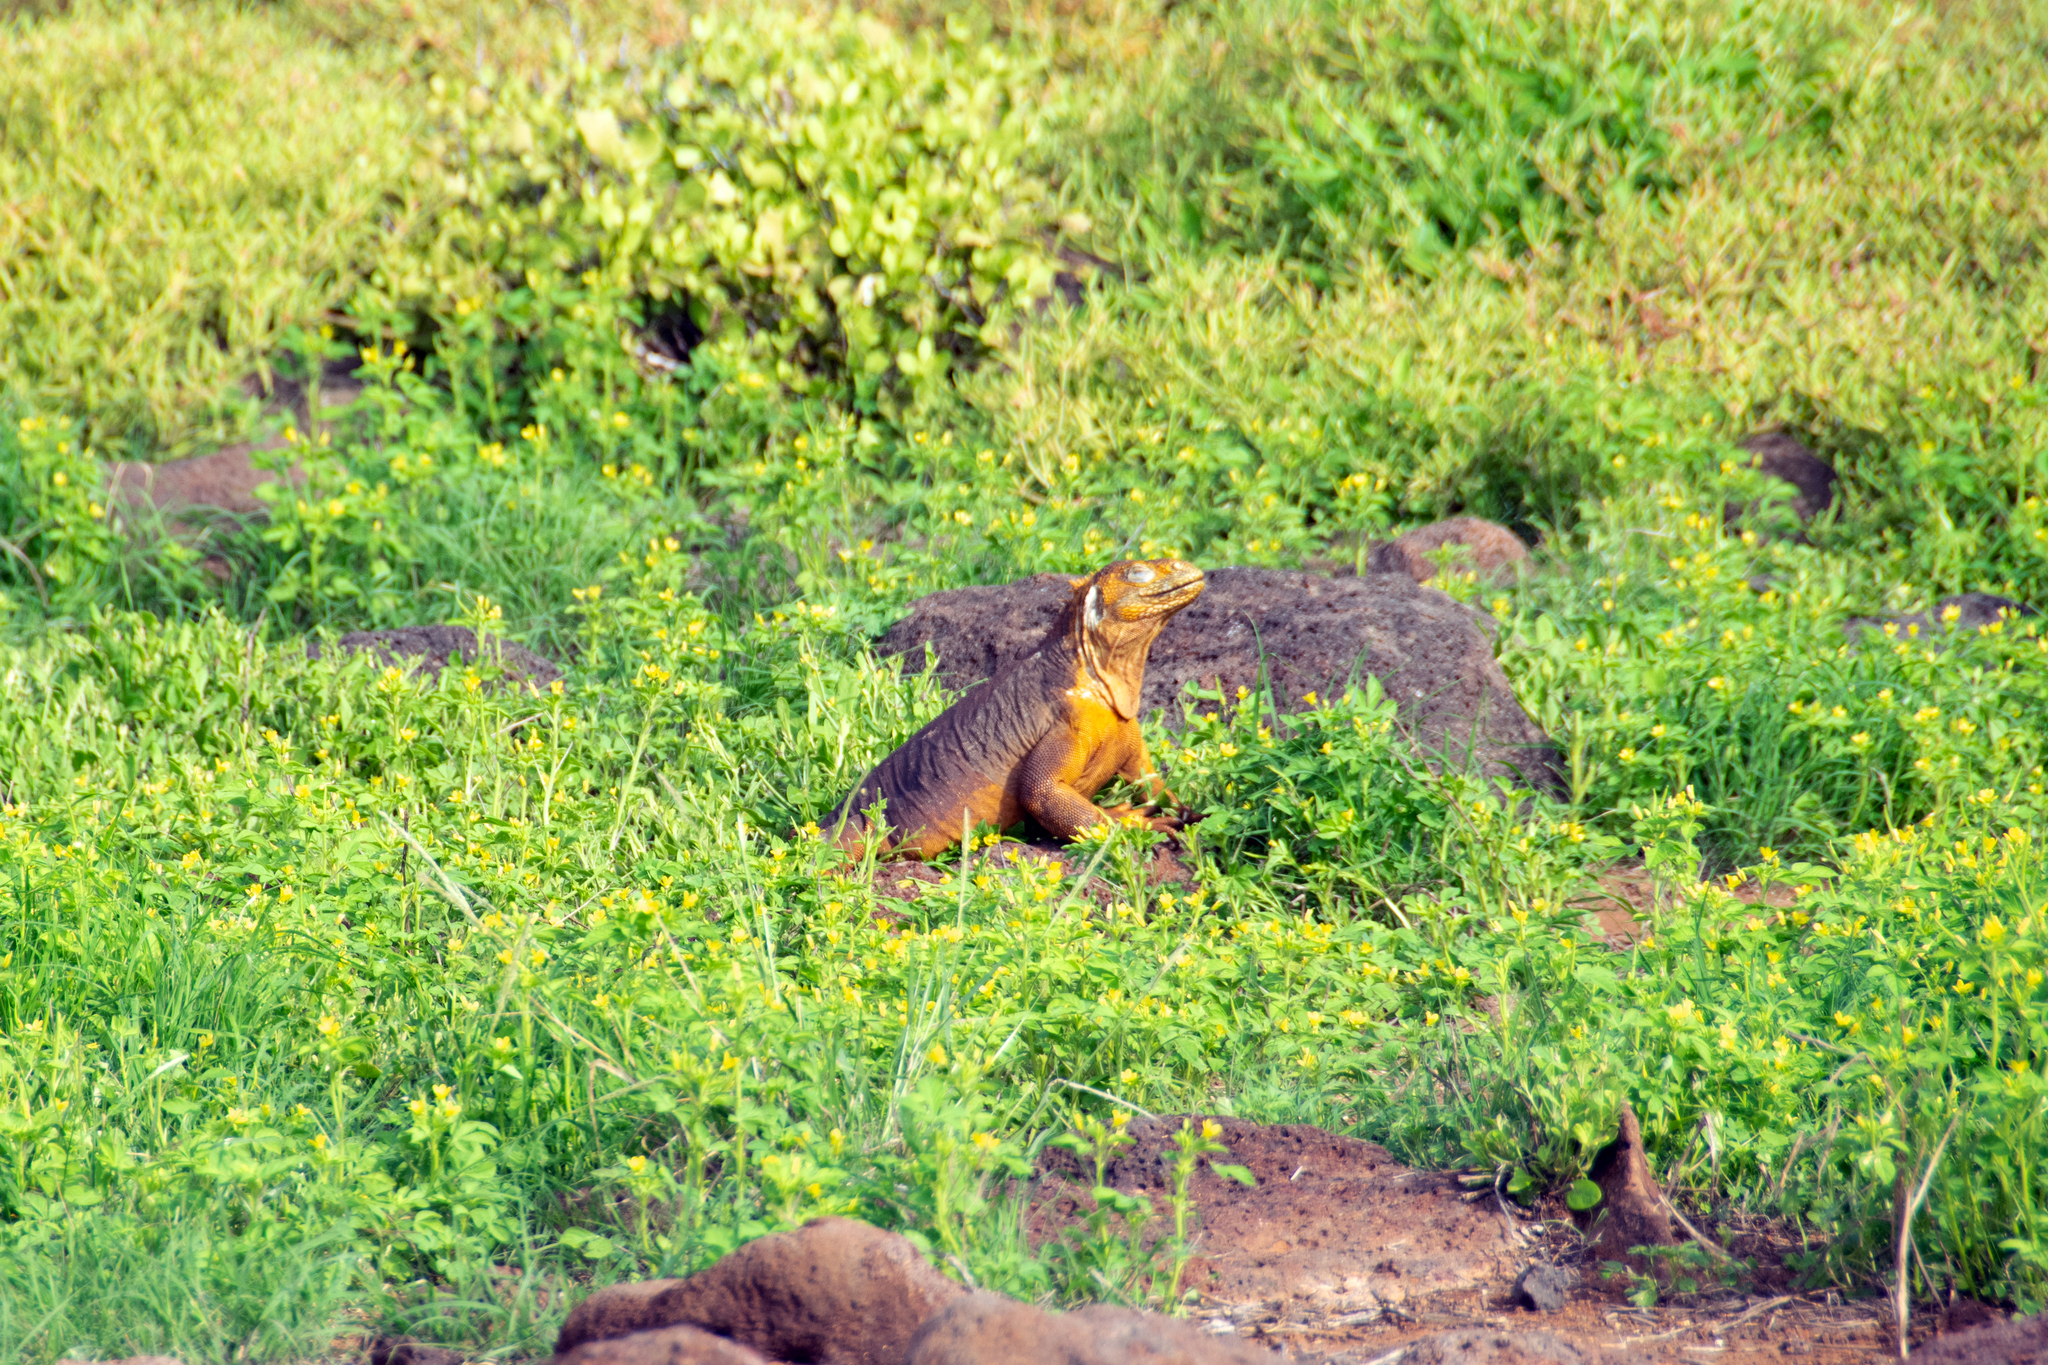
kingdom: Animalia
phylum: Chordata
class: Squamata
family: Iguanidae
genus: Conolophus
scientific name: Conolophus subcristatus
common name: Galapagos land iguana
